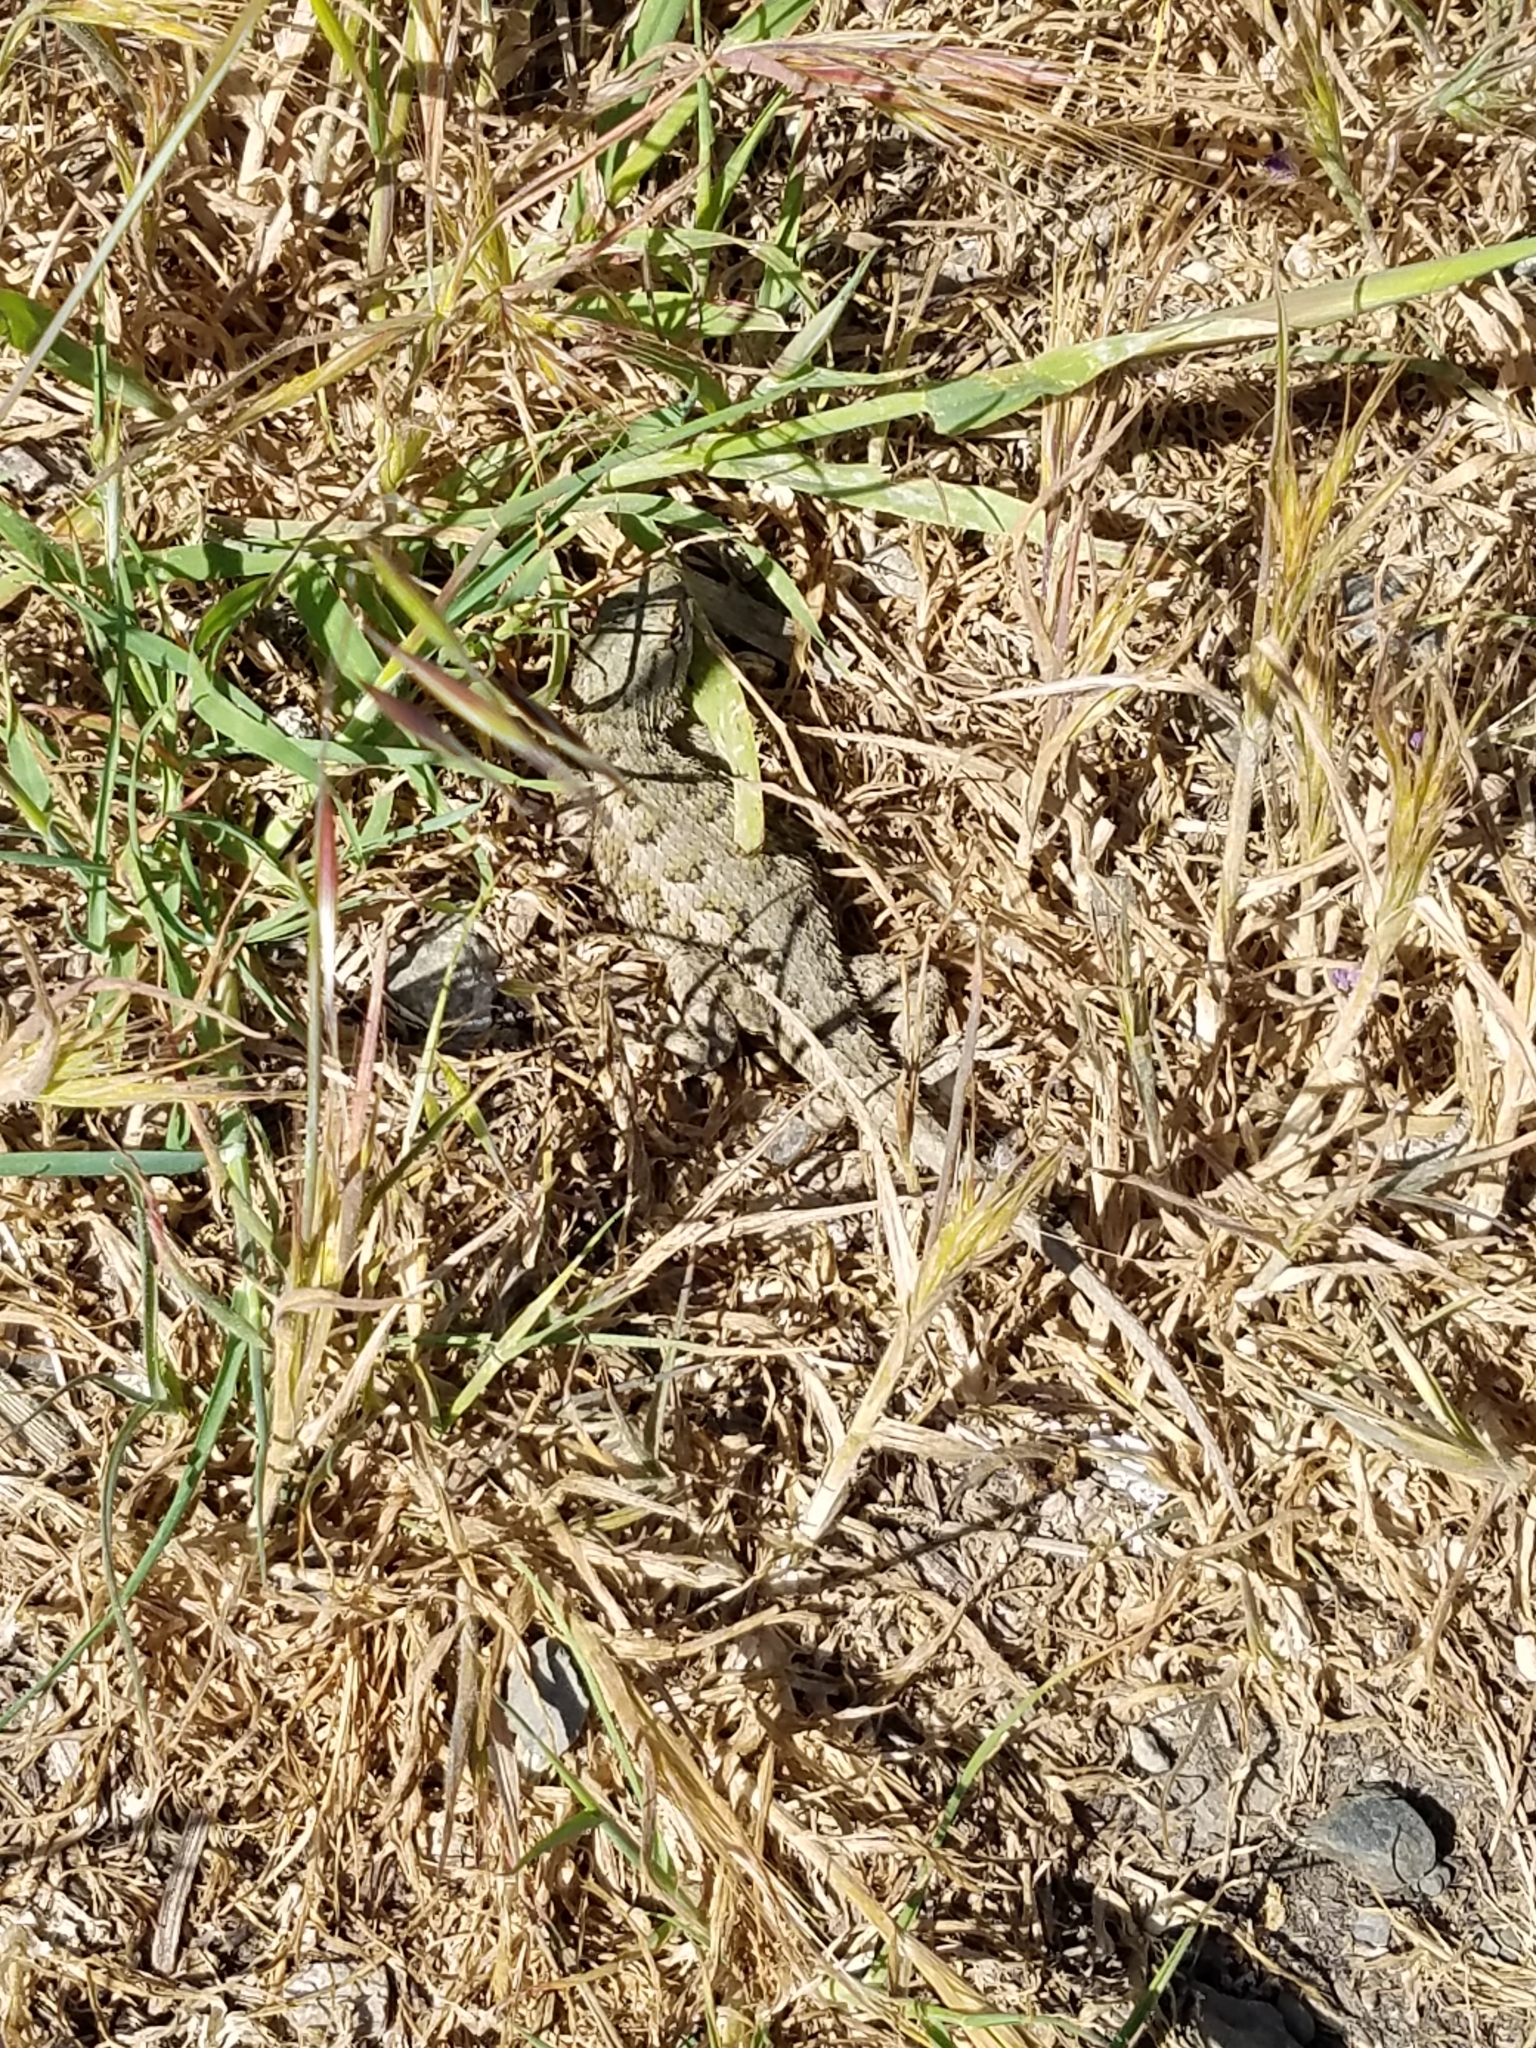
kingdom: Animalia
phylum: Chordata
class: Squamata
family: Phrynosomatidae
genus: Sceloporus
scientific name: Sceloporus occidentalis
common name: Western fence lizard
